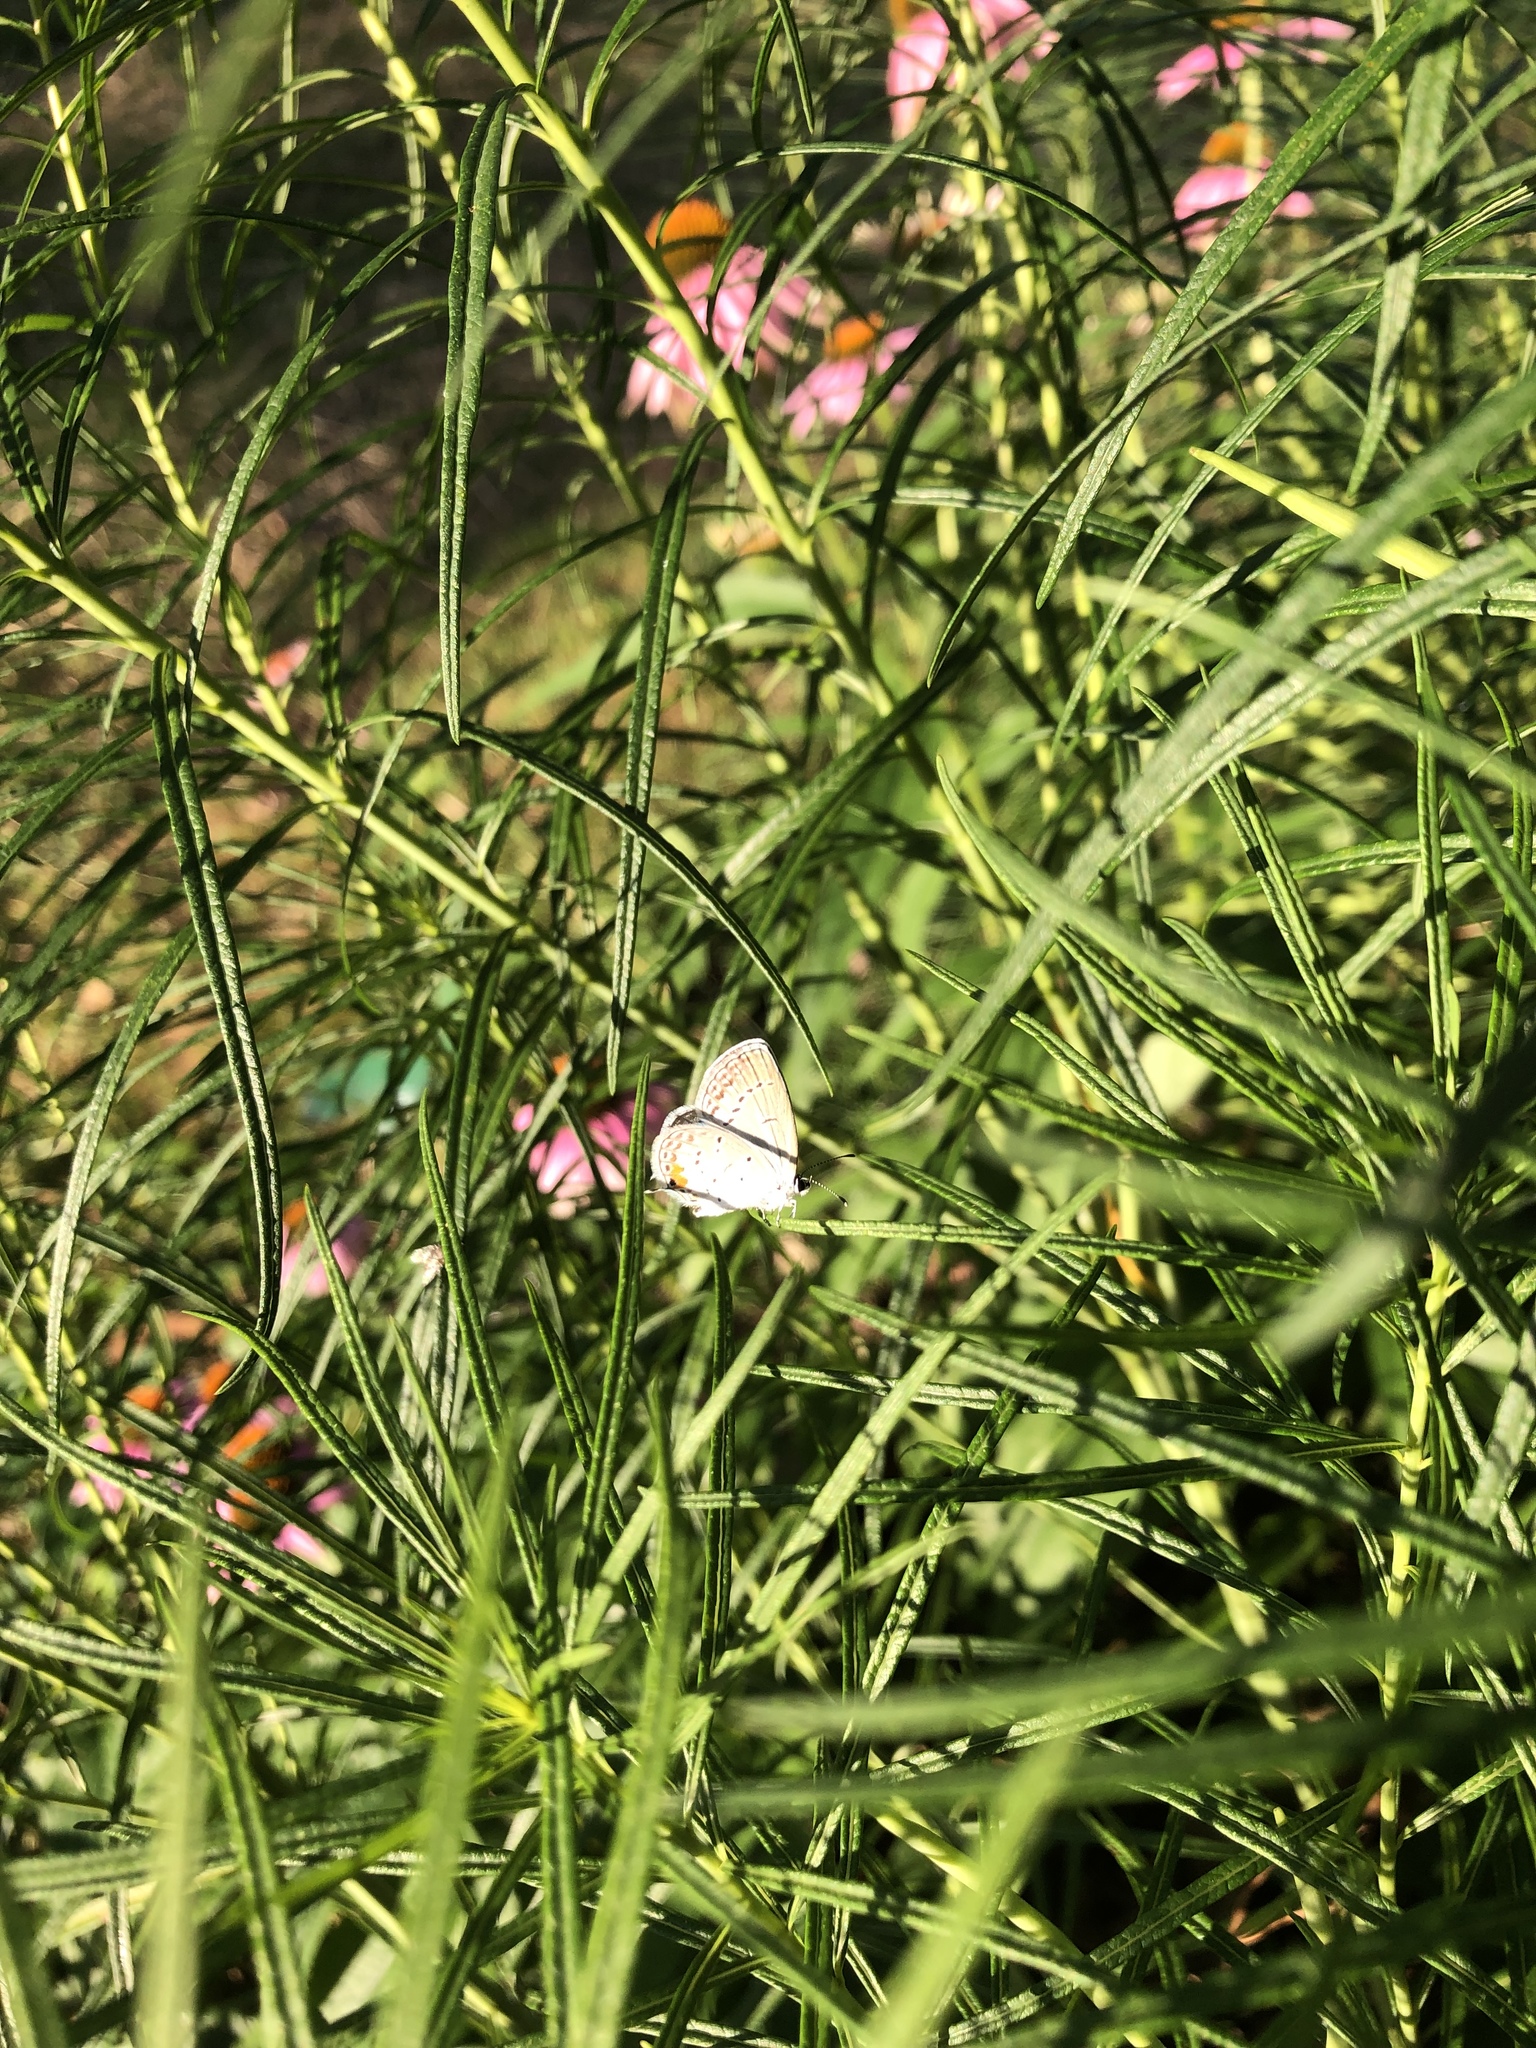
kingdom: Animalia
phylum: Arthropoda
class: Insecta
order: Lepidoptera
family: Lycaenidae
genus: Elkalyce
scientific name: Elkalyce comyntas
